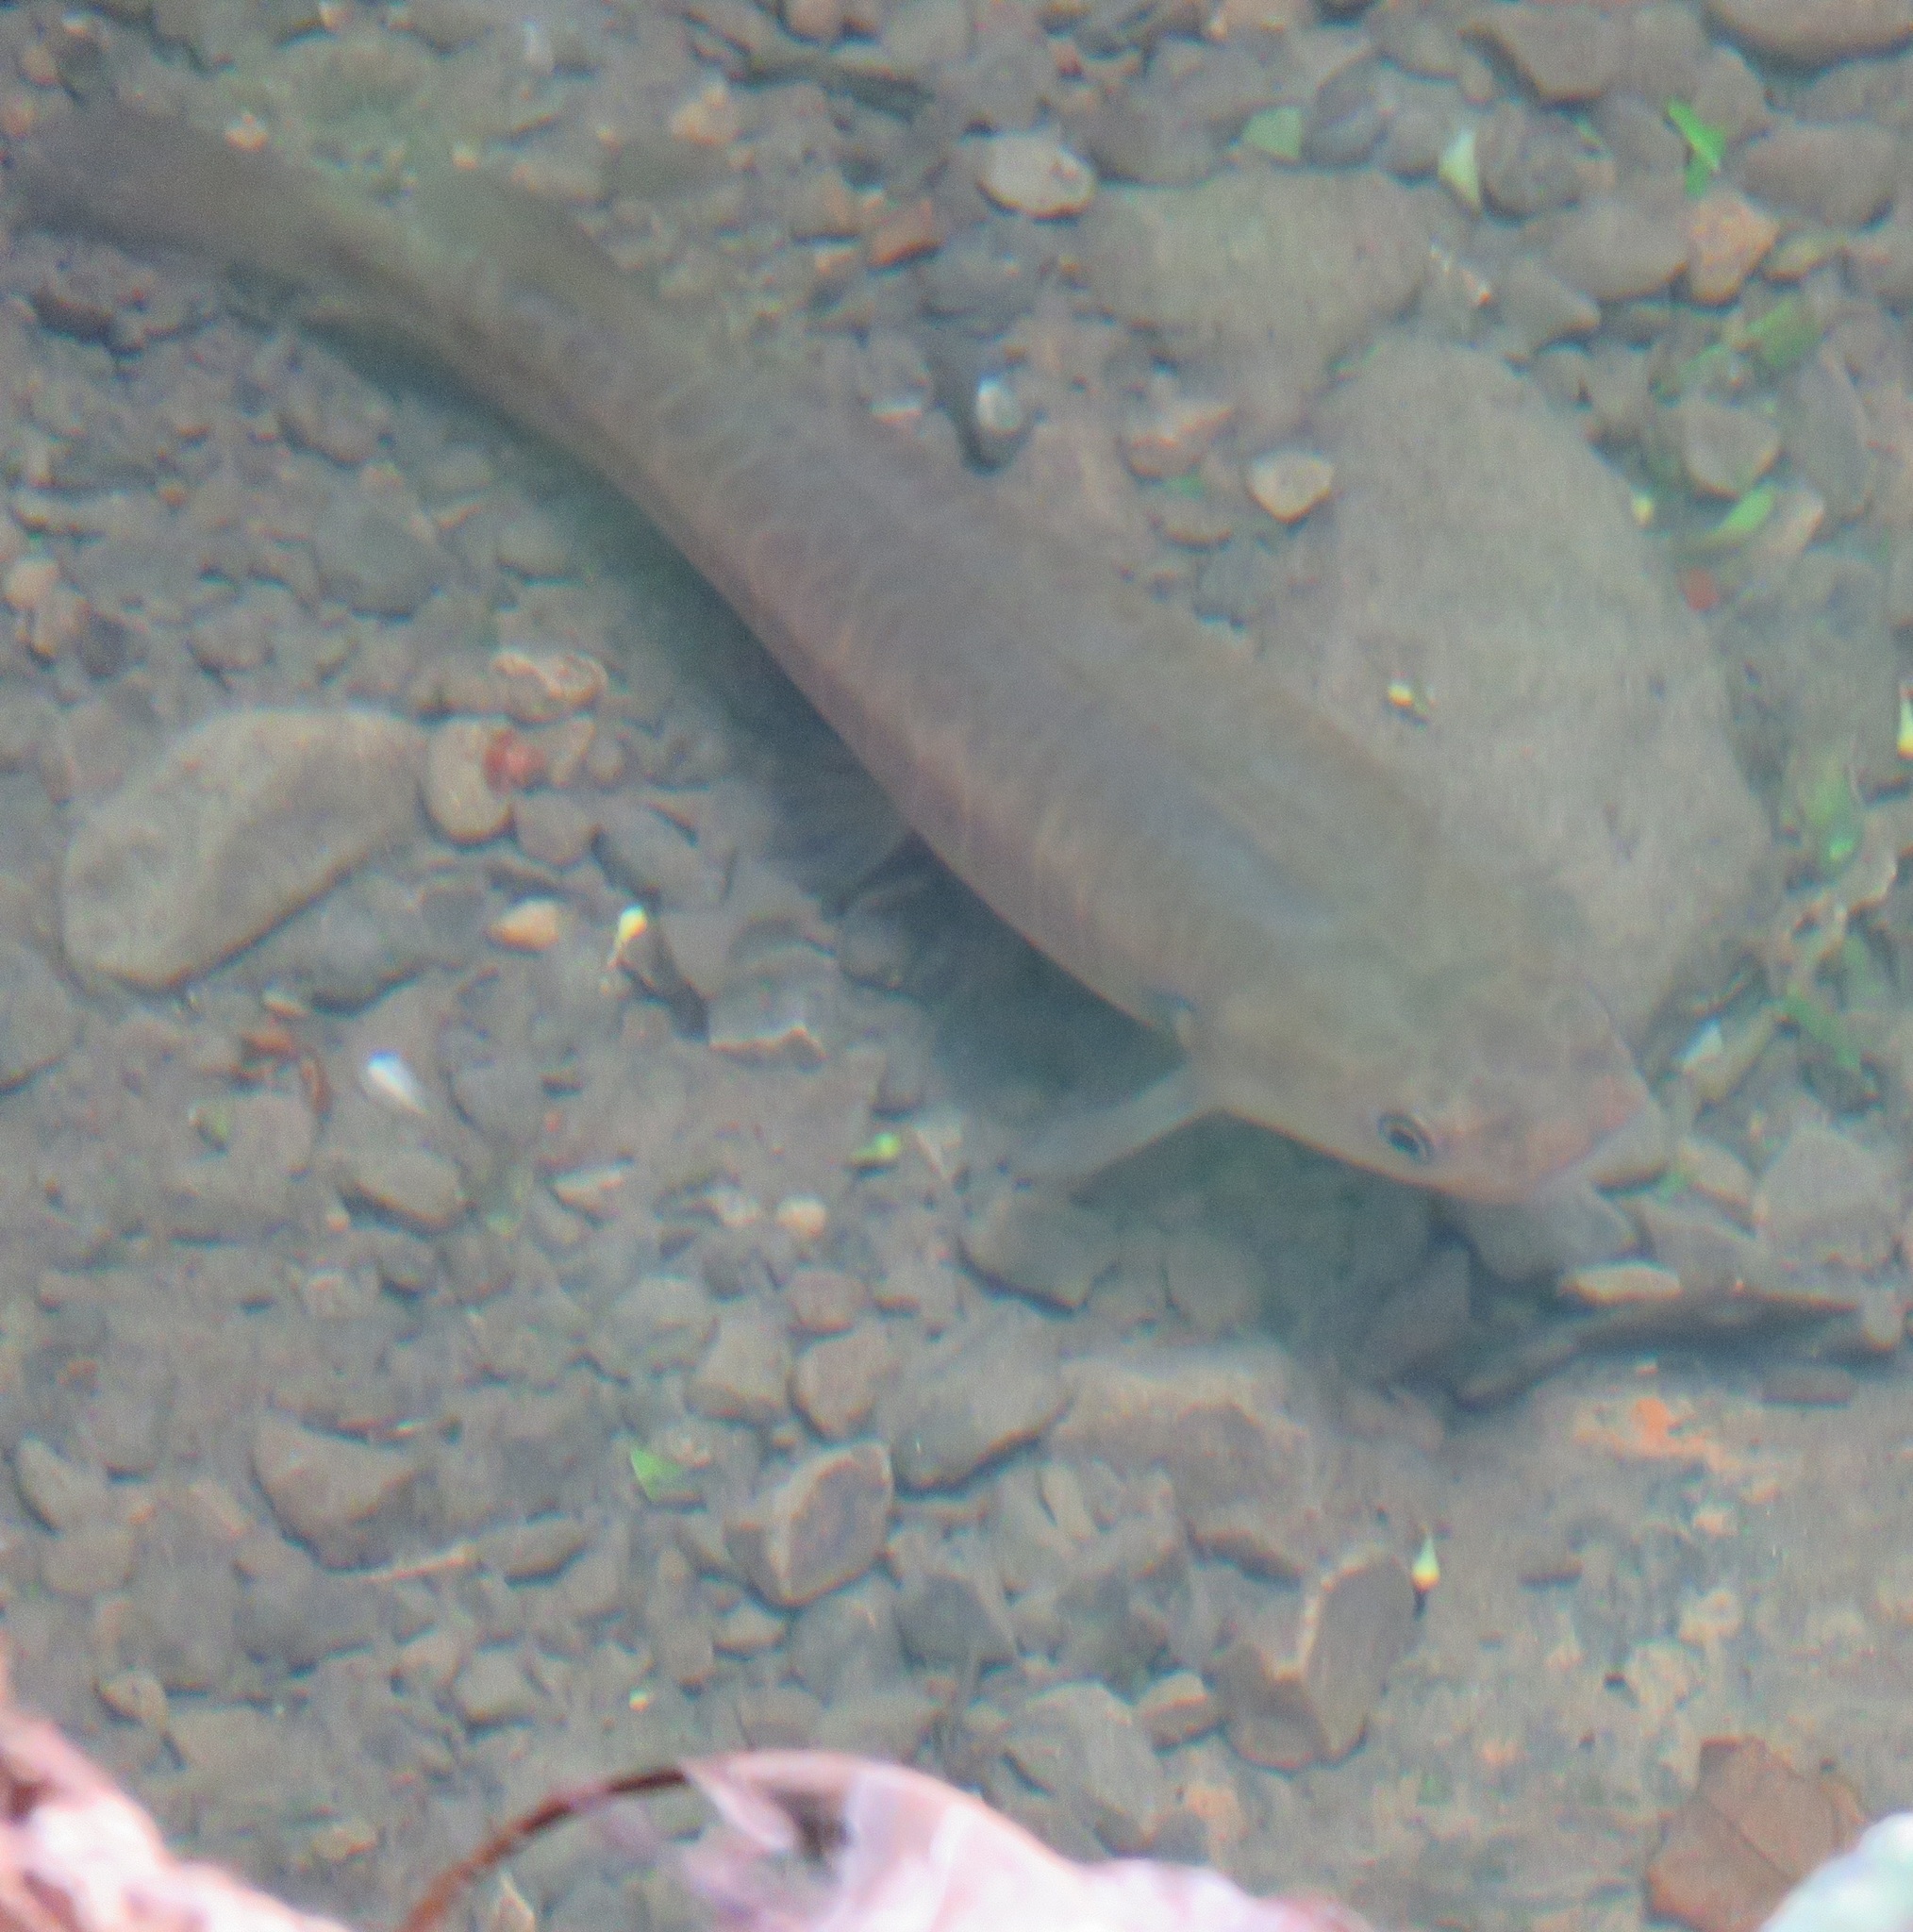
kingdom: Animalia
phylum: Chordata
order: Osmeriformes
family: Galaxiidae
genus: Galaxias
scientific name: Galaxias fasciatus
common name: Banded kokopu
